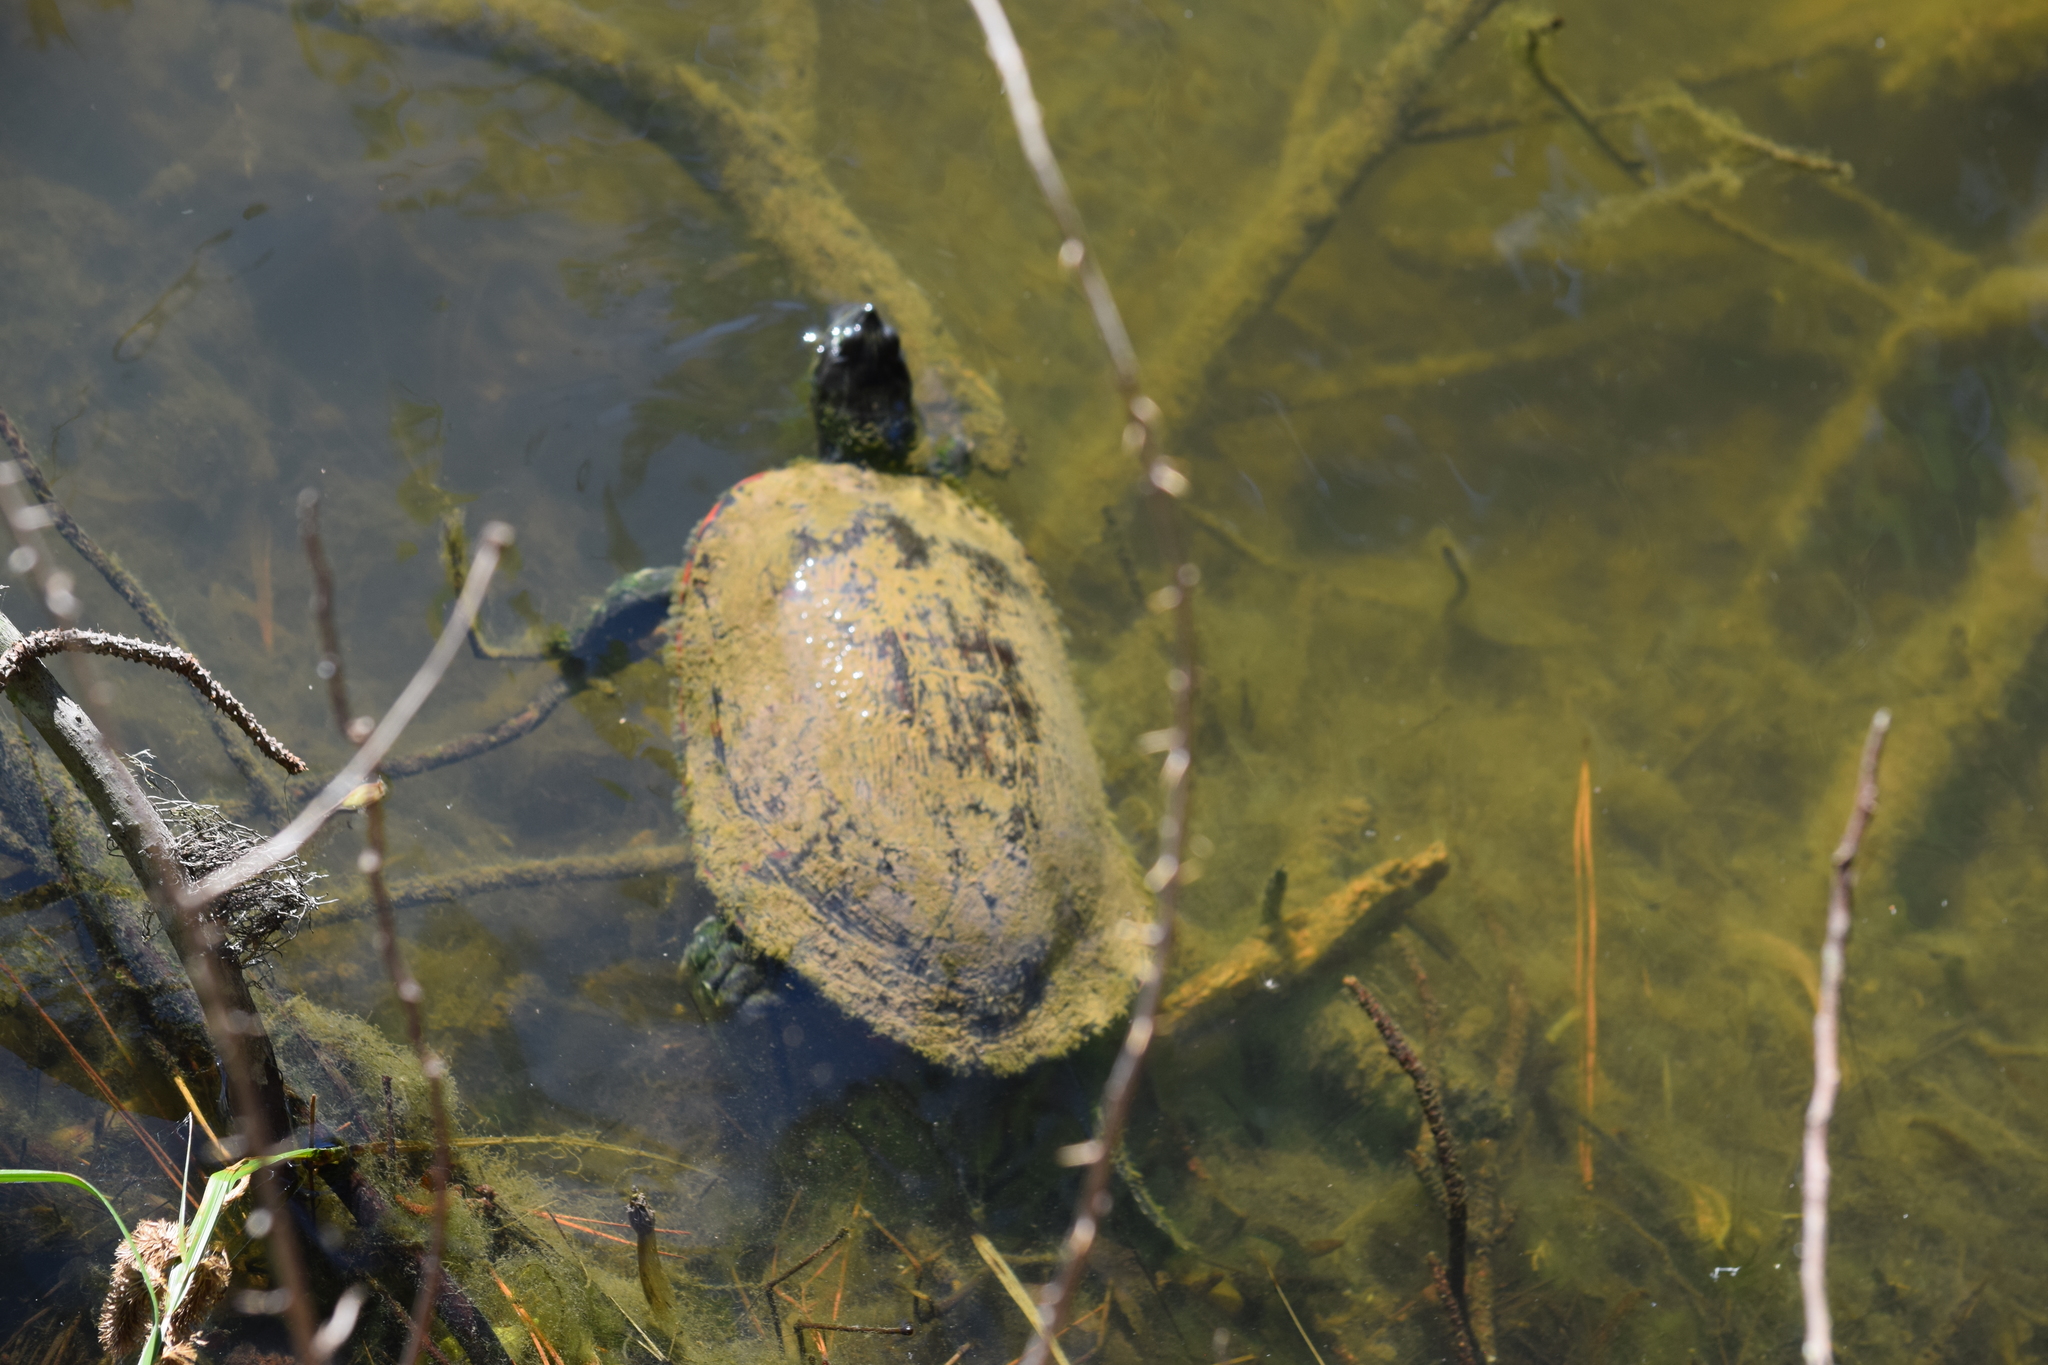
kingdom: Animalia
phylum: Chordata
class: Testudines
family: Emydidae
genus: Pseudemys
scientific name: Pseudemys rubriventris
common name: American red-bellied turtle
